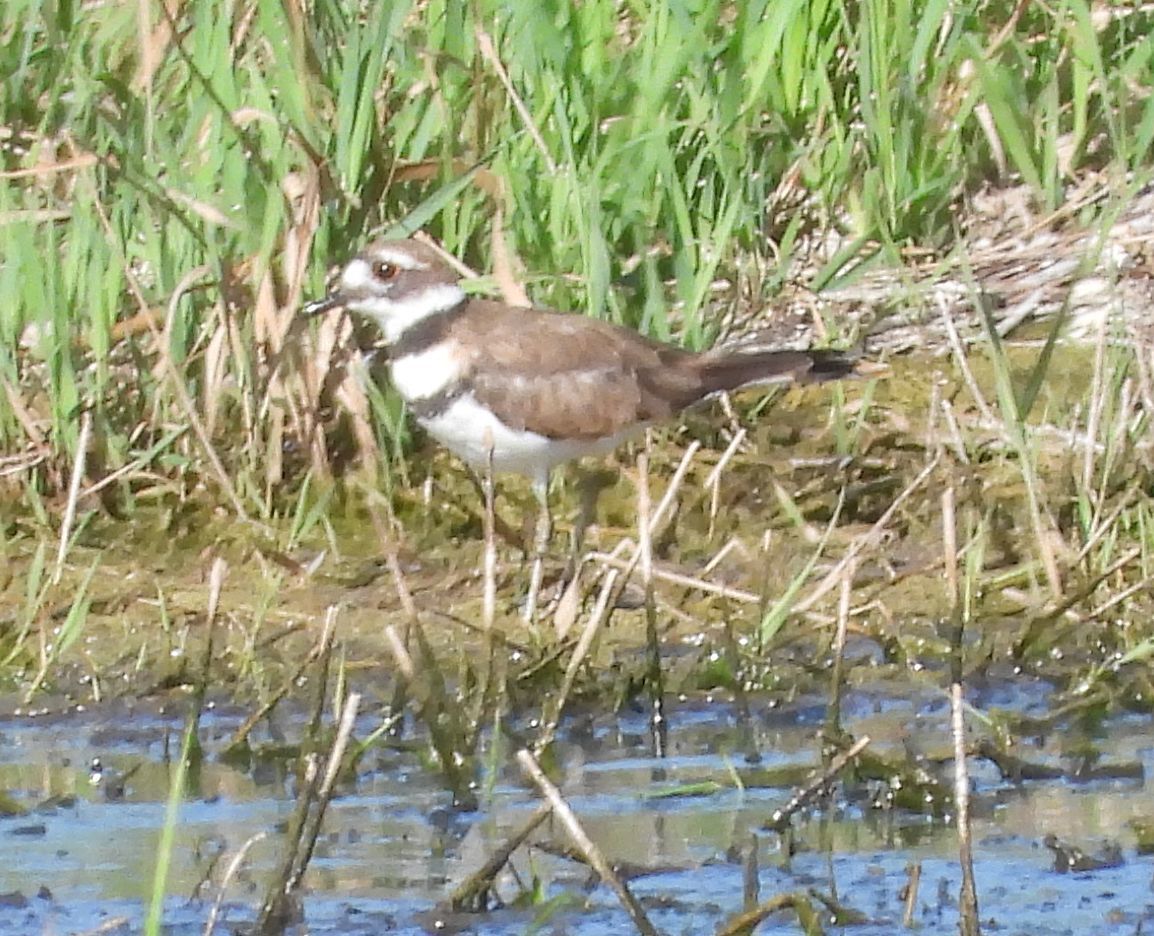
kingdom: Animalia
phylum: Chordata
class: Aves
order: Charadriiformes
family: Charadriidae
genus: Charadrius
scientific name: Charadrius vociferus
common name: Killdeer
